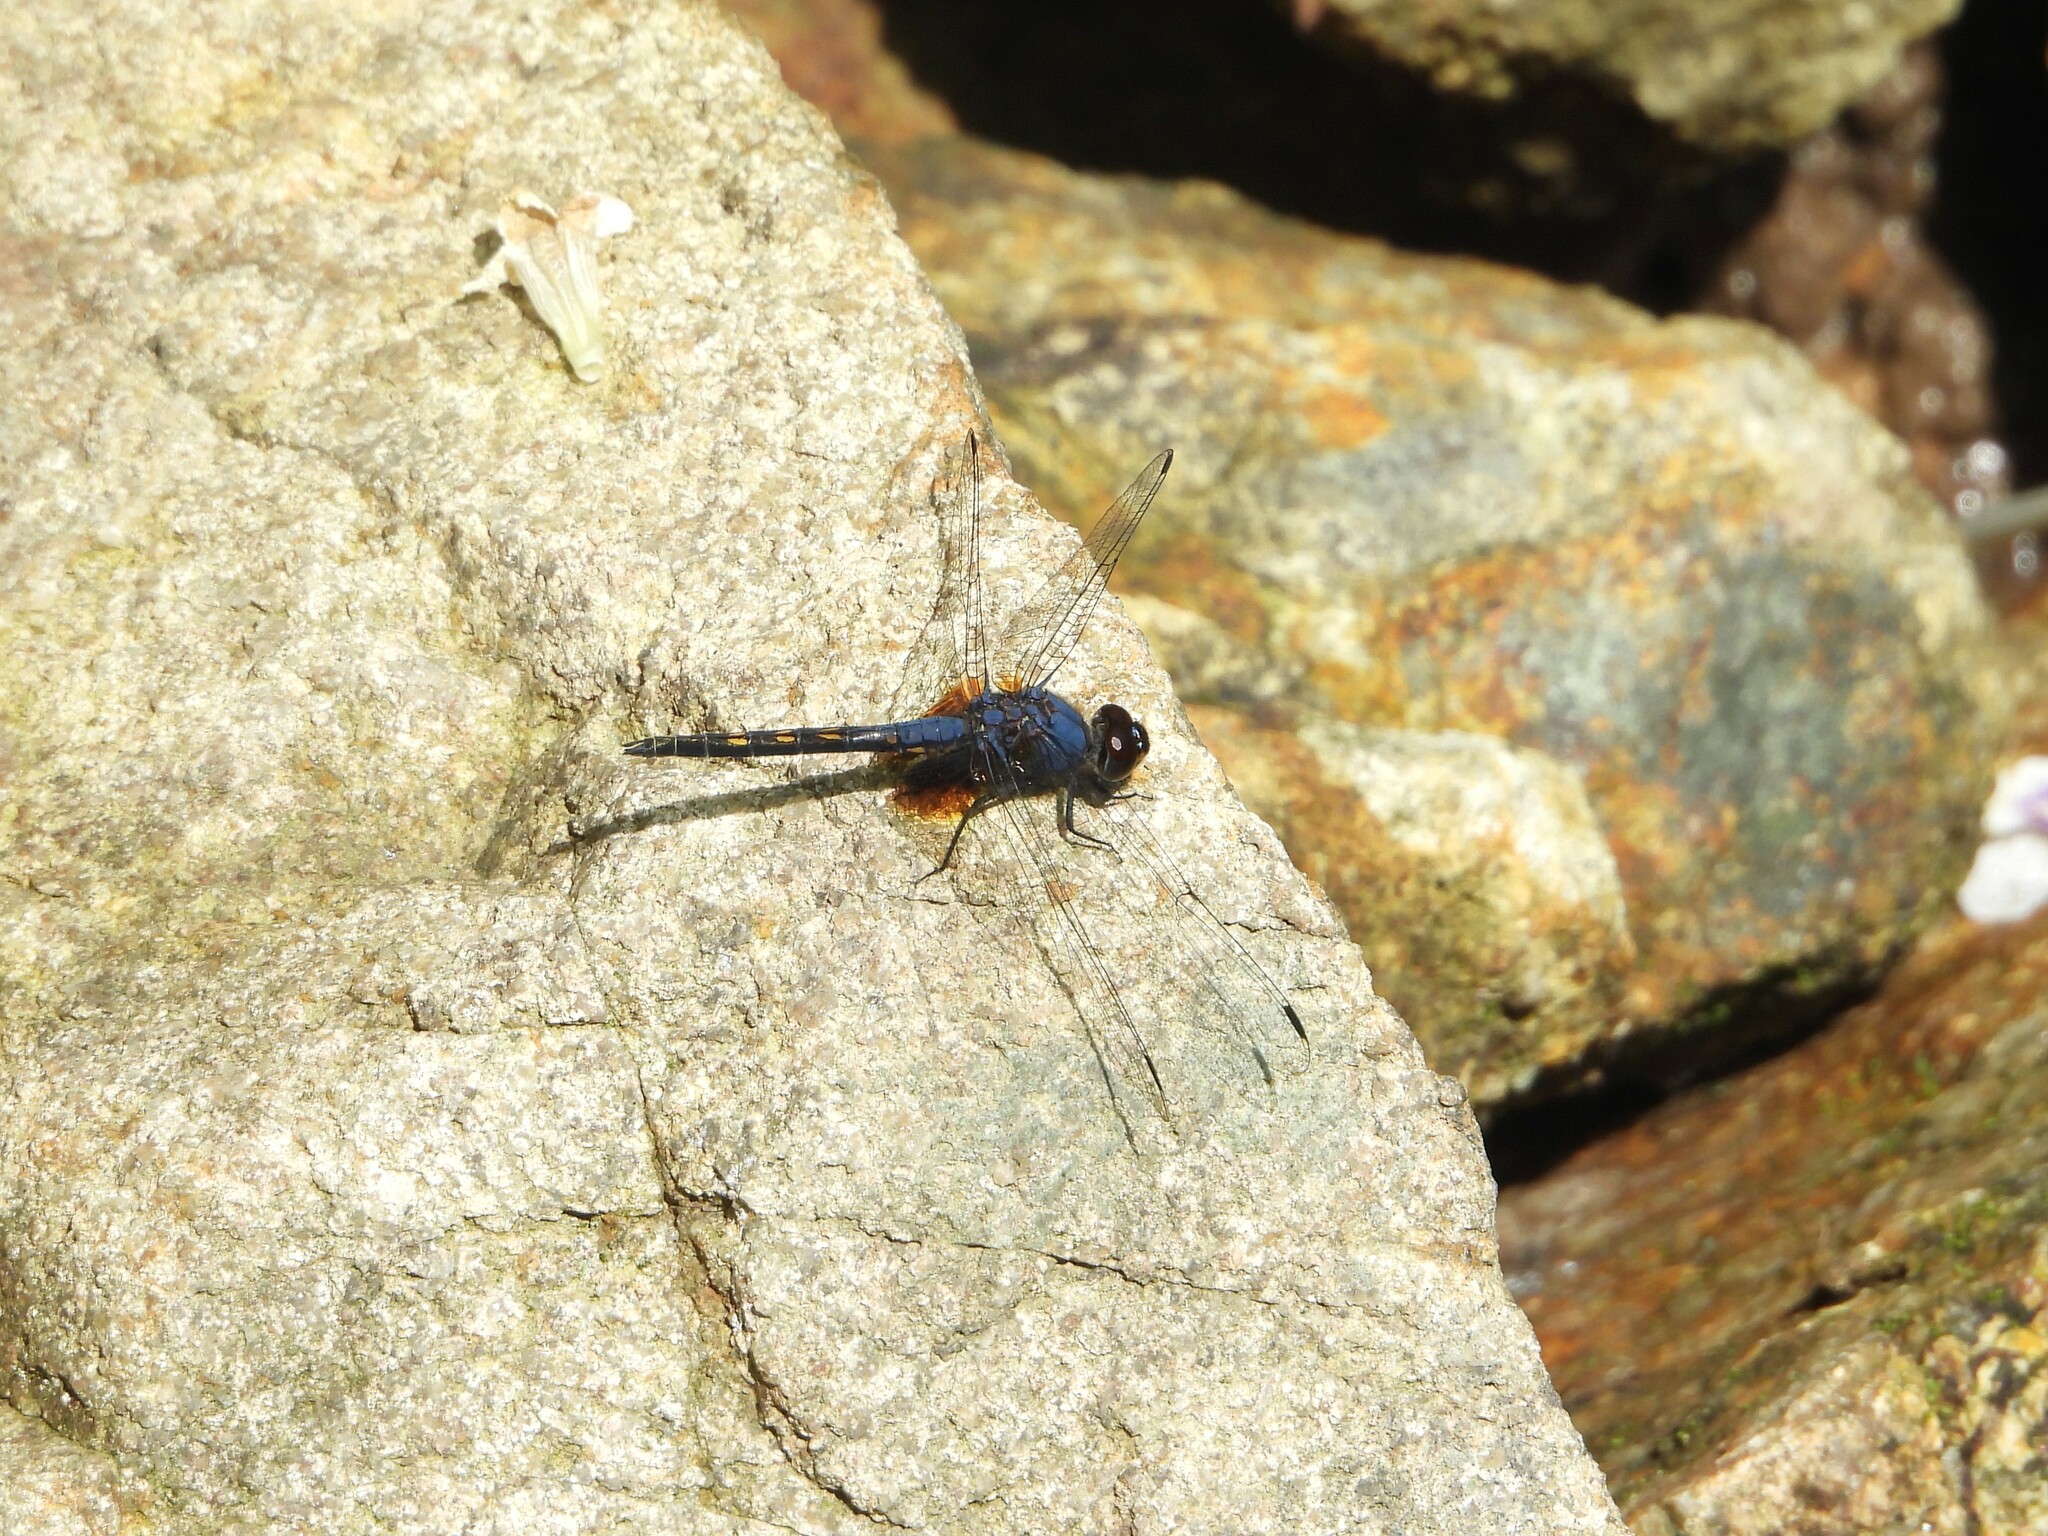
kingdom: Animalia
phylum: Arthropoda
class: Insecta
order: Odonata
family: Libellulidae
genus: Trithemis
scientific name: Trithemis festiva
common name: Indigo dropwing
